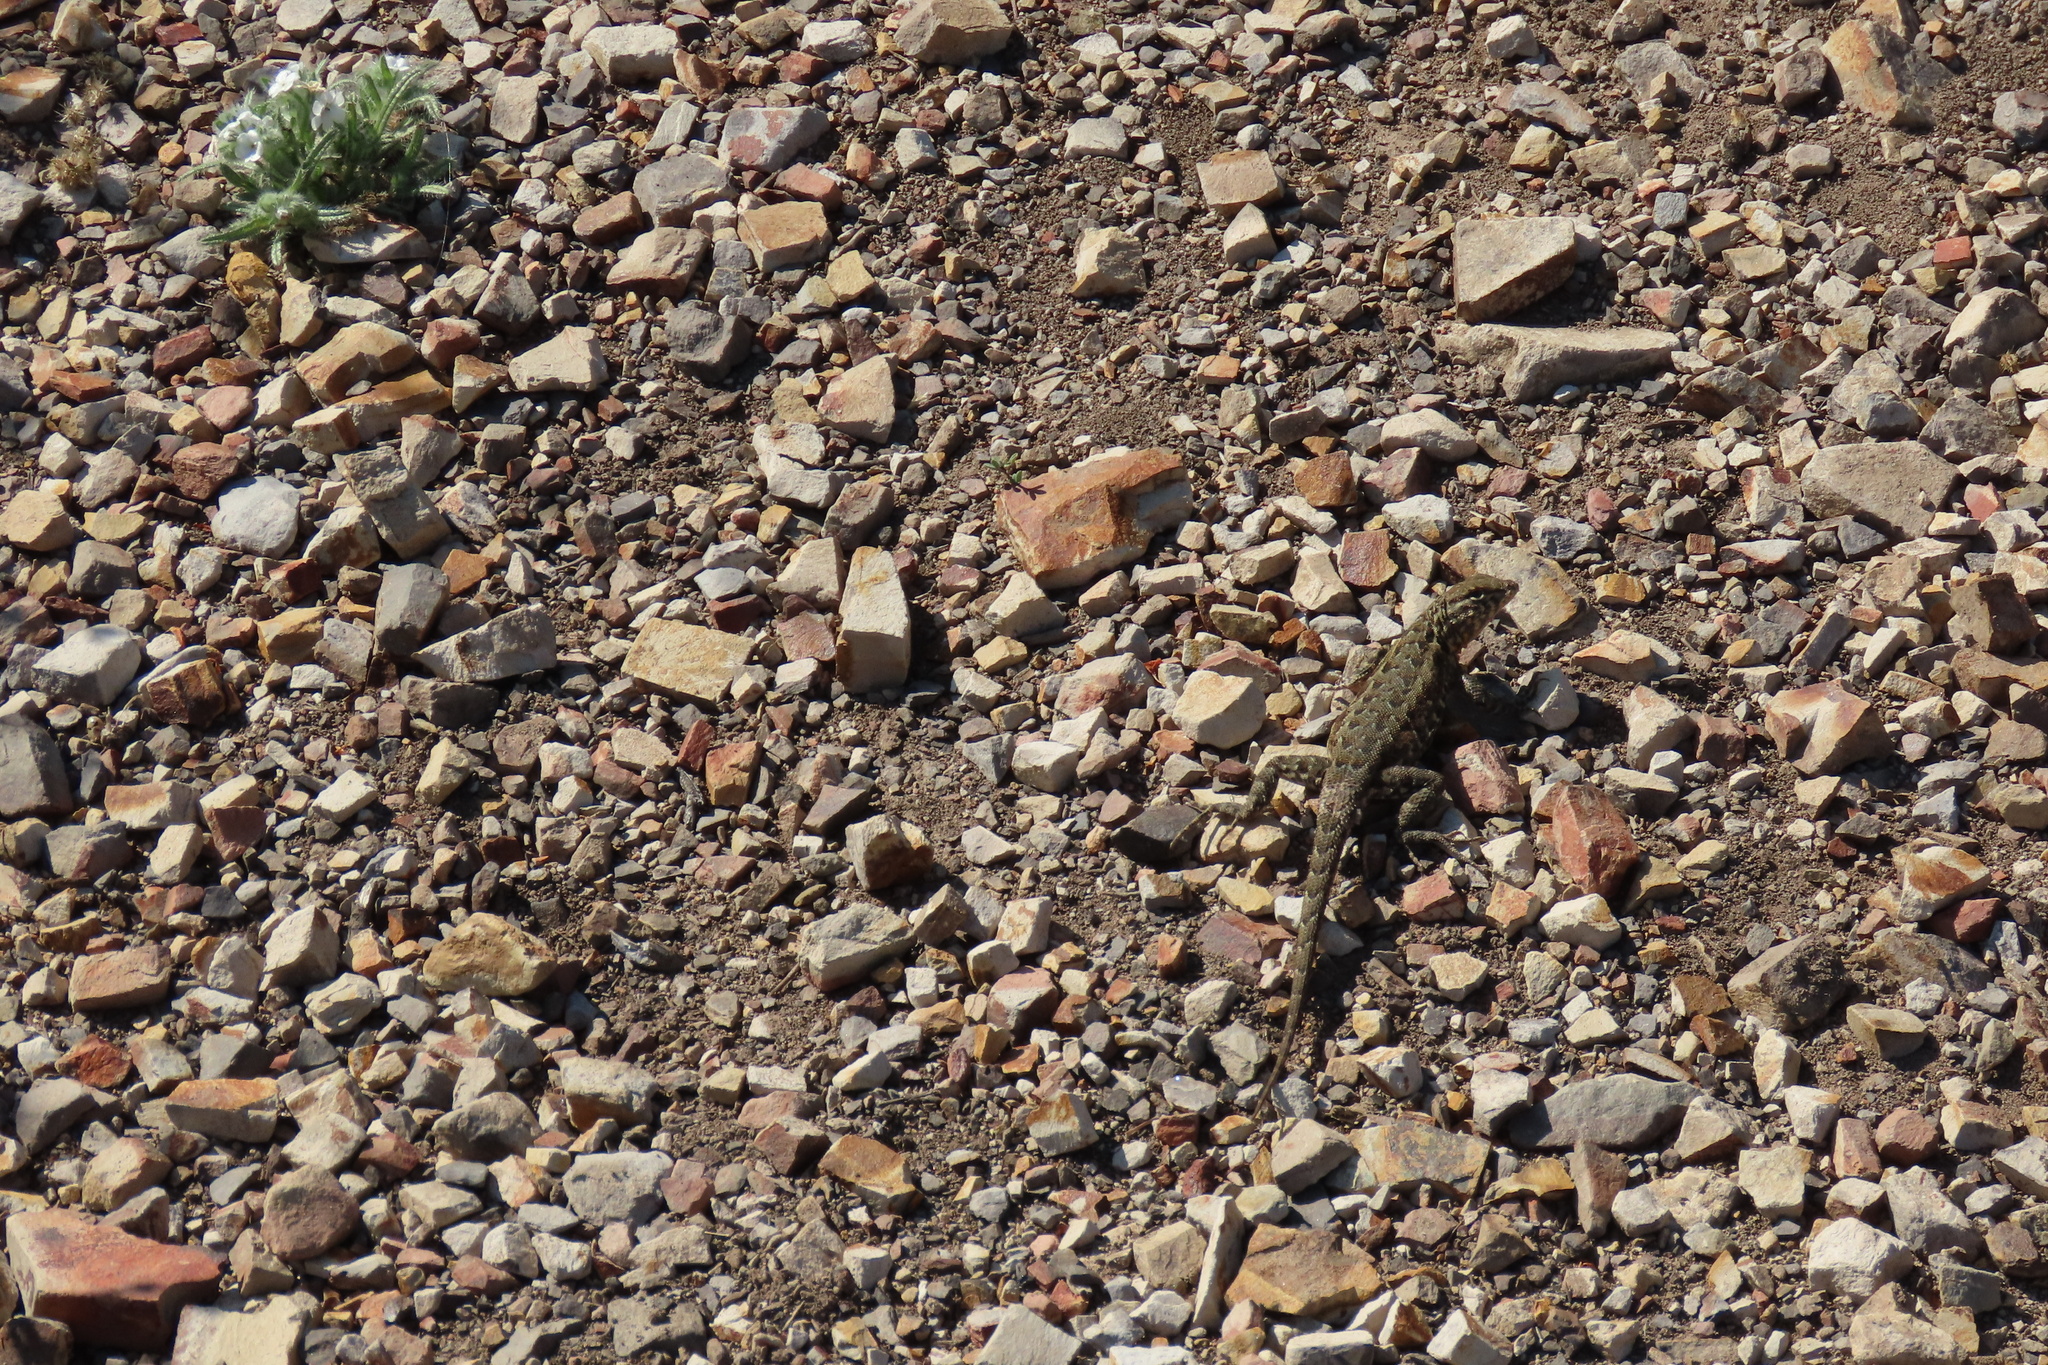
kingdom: Animalia
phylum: Chordata
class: Squamata
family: Phrynosomatidae
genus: Uta
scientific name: Uta stansburiana
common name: Side-blotched lizard
